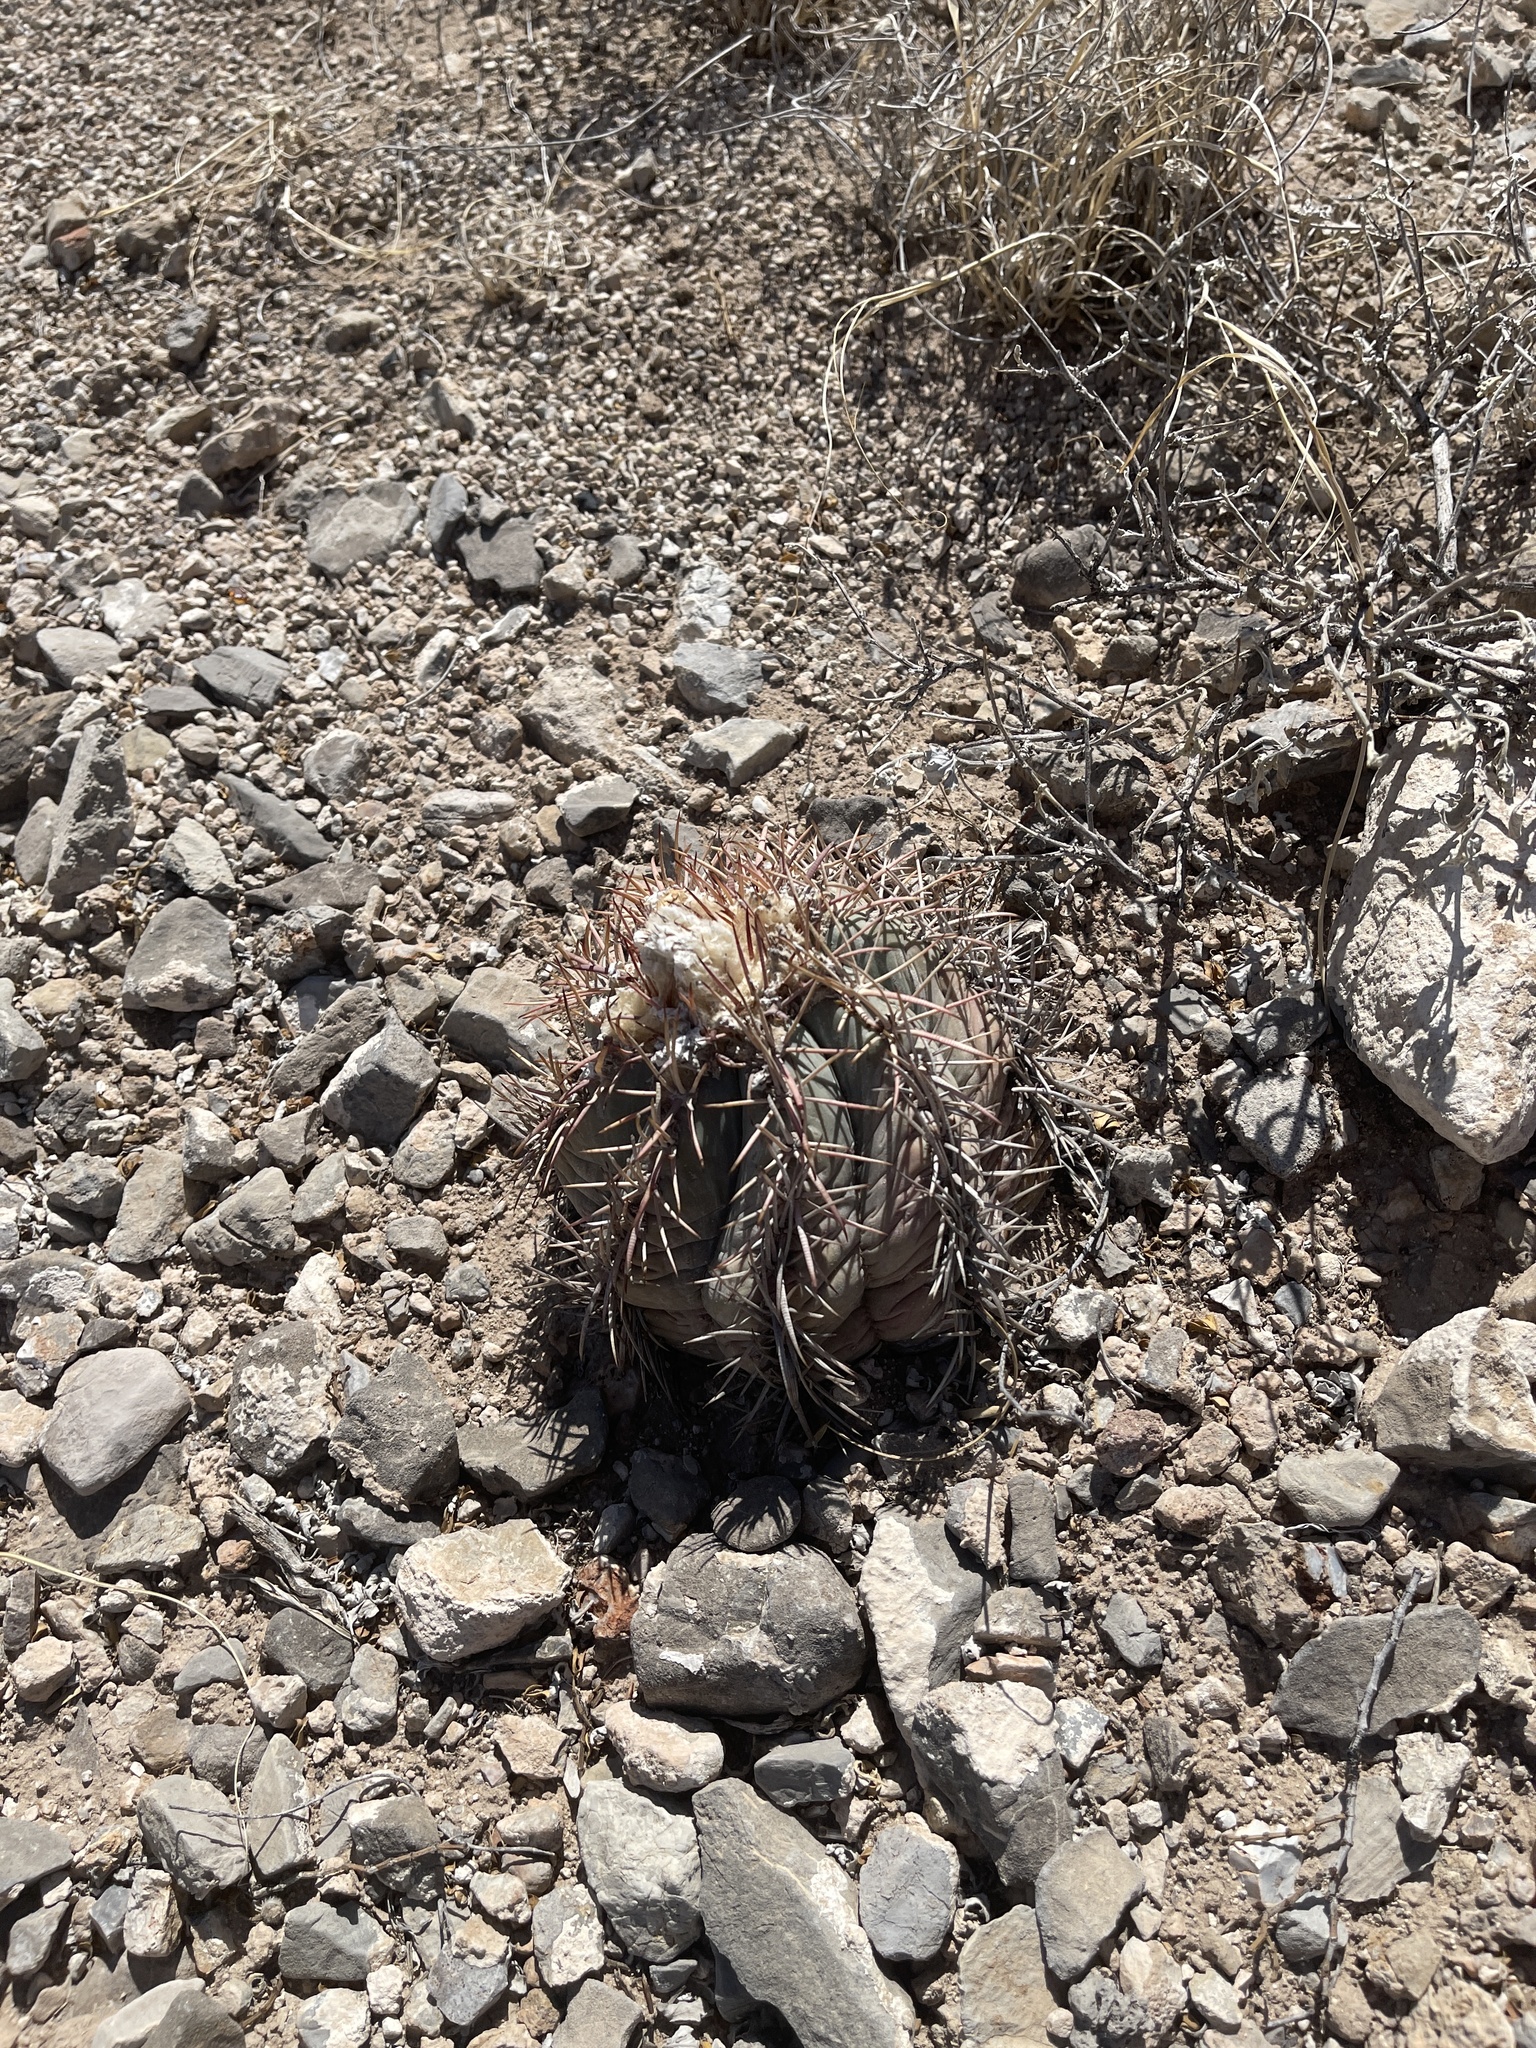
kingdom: Plantae
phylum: Tracheophyta
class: Magnoliopsida
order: Caryophyllales
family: Cactaceae
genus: Echinocactus
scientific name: Echinocactus horizonthalonius
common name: Devilshead
